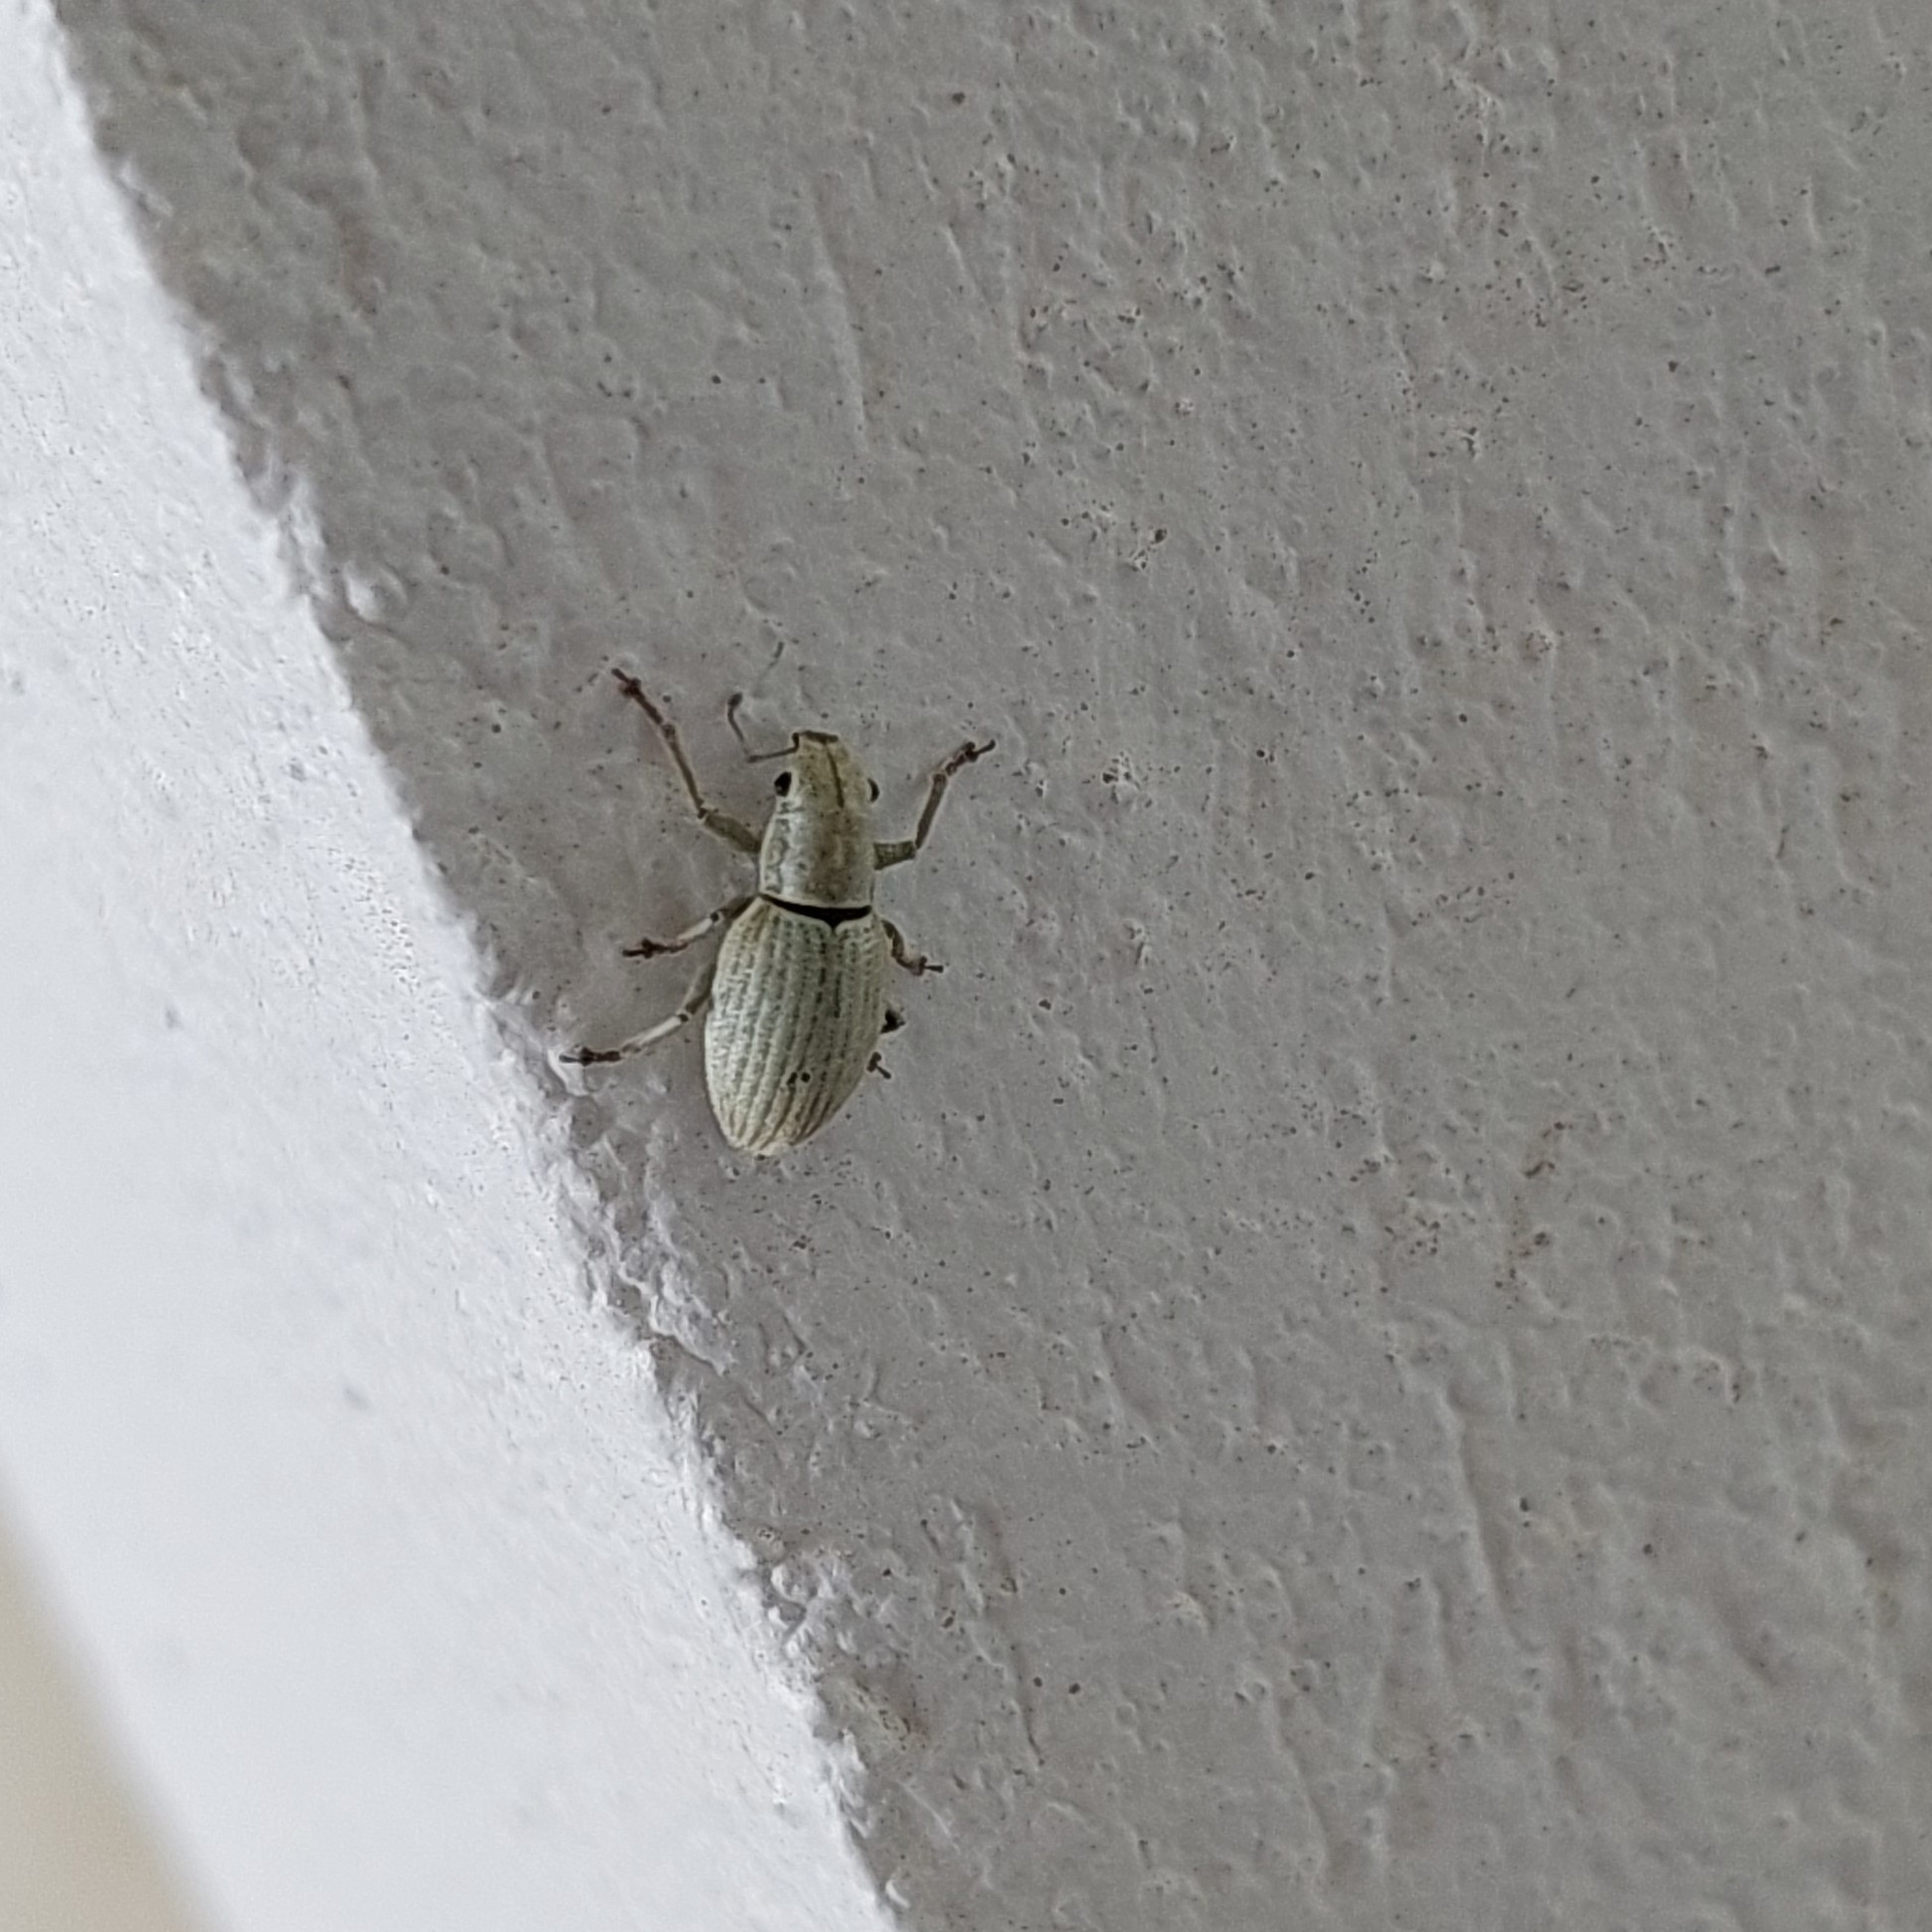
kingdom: Animalia
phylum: Arthropoda
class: Insecta
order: Coleoptera
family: Curculionidae
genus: Aramigus
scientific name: Aramigus tessellatus
